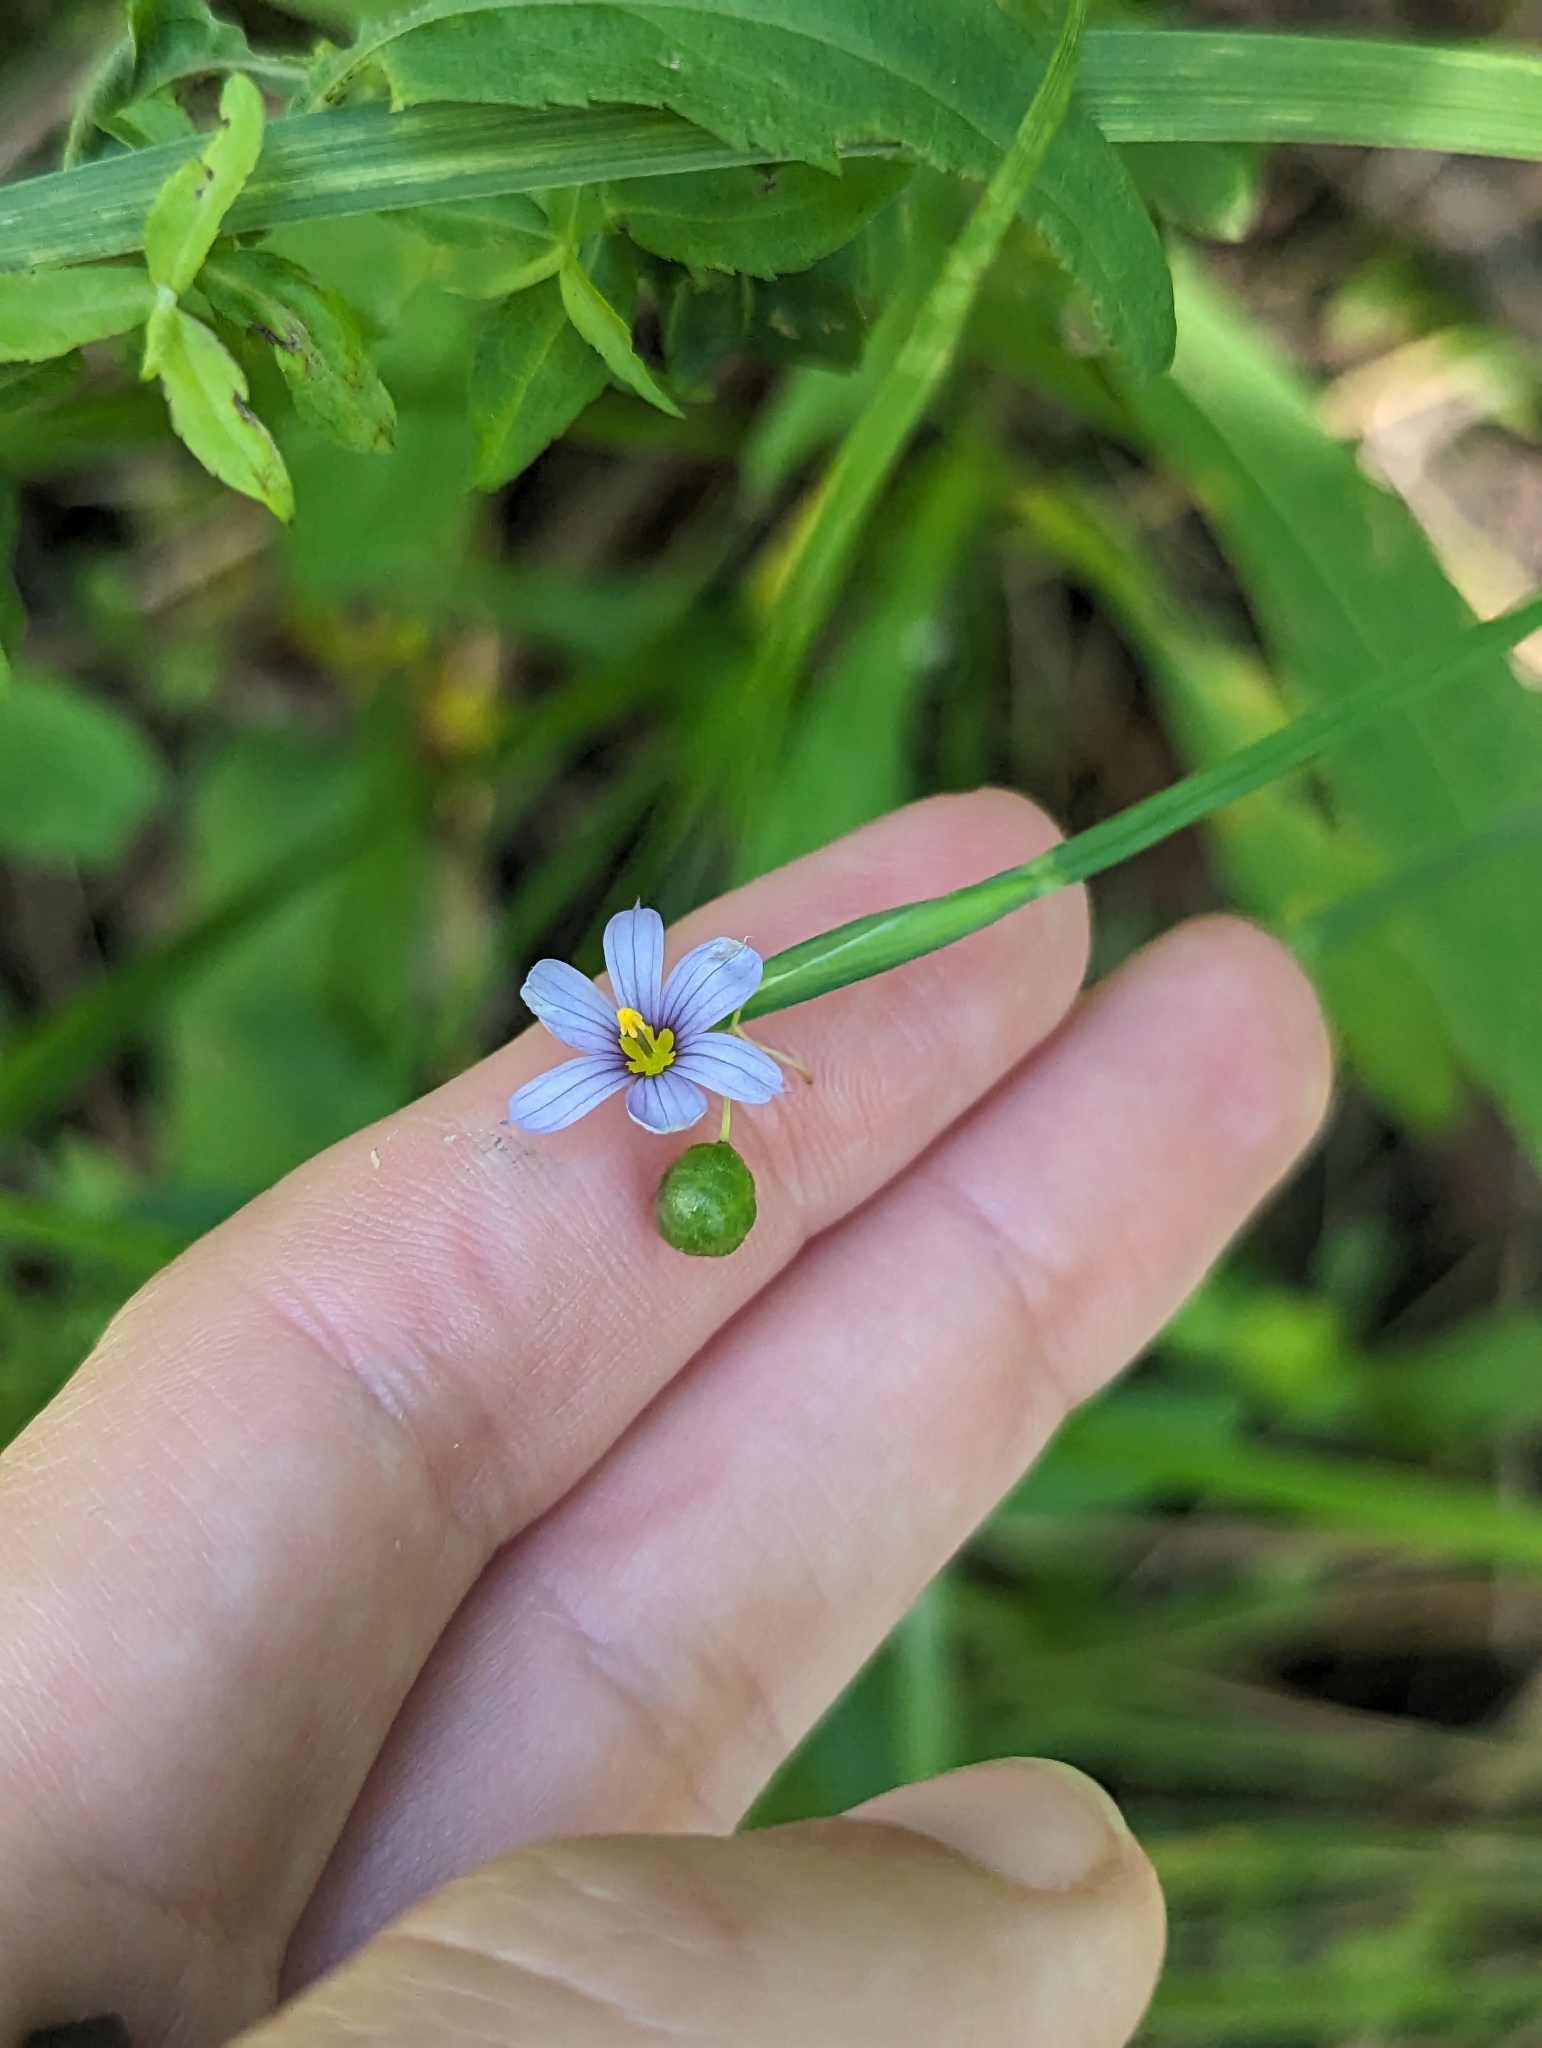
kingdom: Plantae
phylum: Tracheophyta
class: Liliopsida
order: Asparagales
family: Iridaceae
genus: Sisyrinchium
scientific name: Sisyrinchium angustifolium
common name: Narrow-leaf blue-eyed-grass
